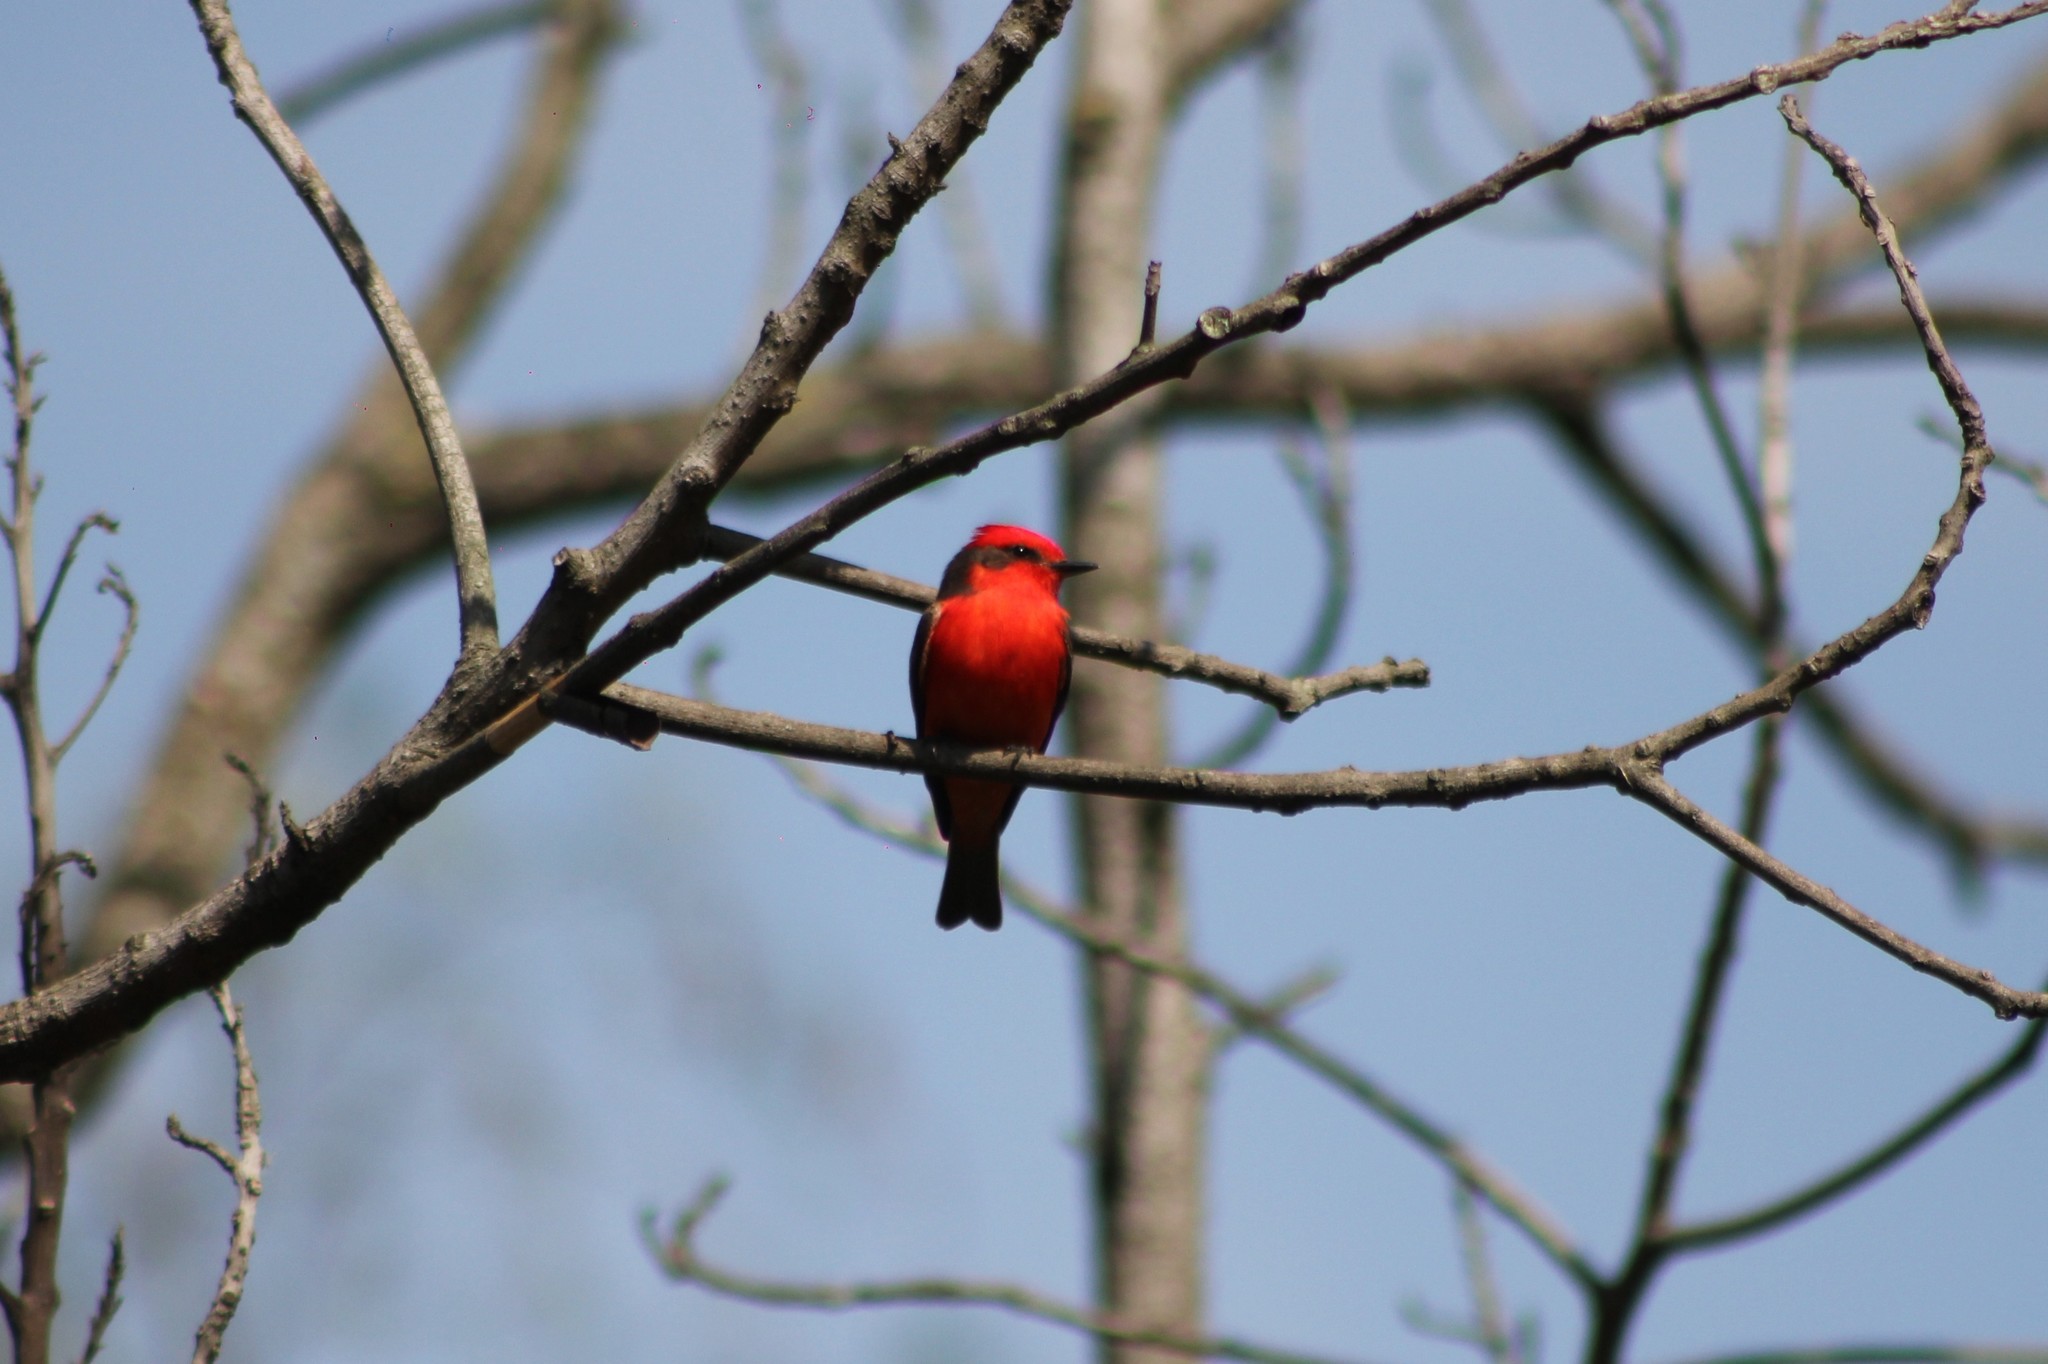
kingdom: Animalia
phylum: Chordata
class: Aves
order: Passeriformes
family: Tyrannidae
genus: Pyrocephalus
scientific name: Pyrocephalus rubinus
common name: Vermilion flycatcher
